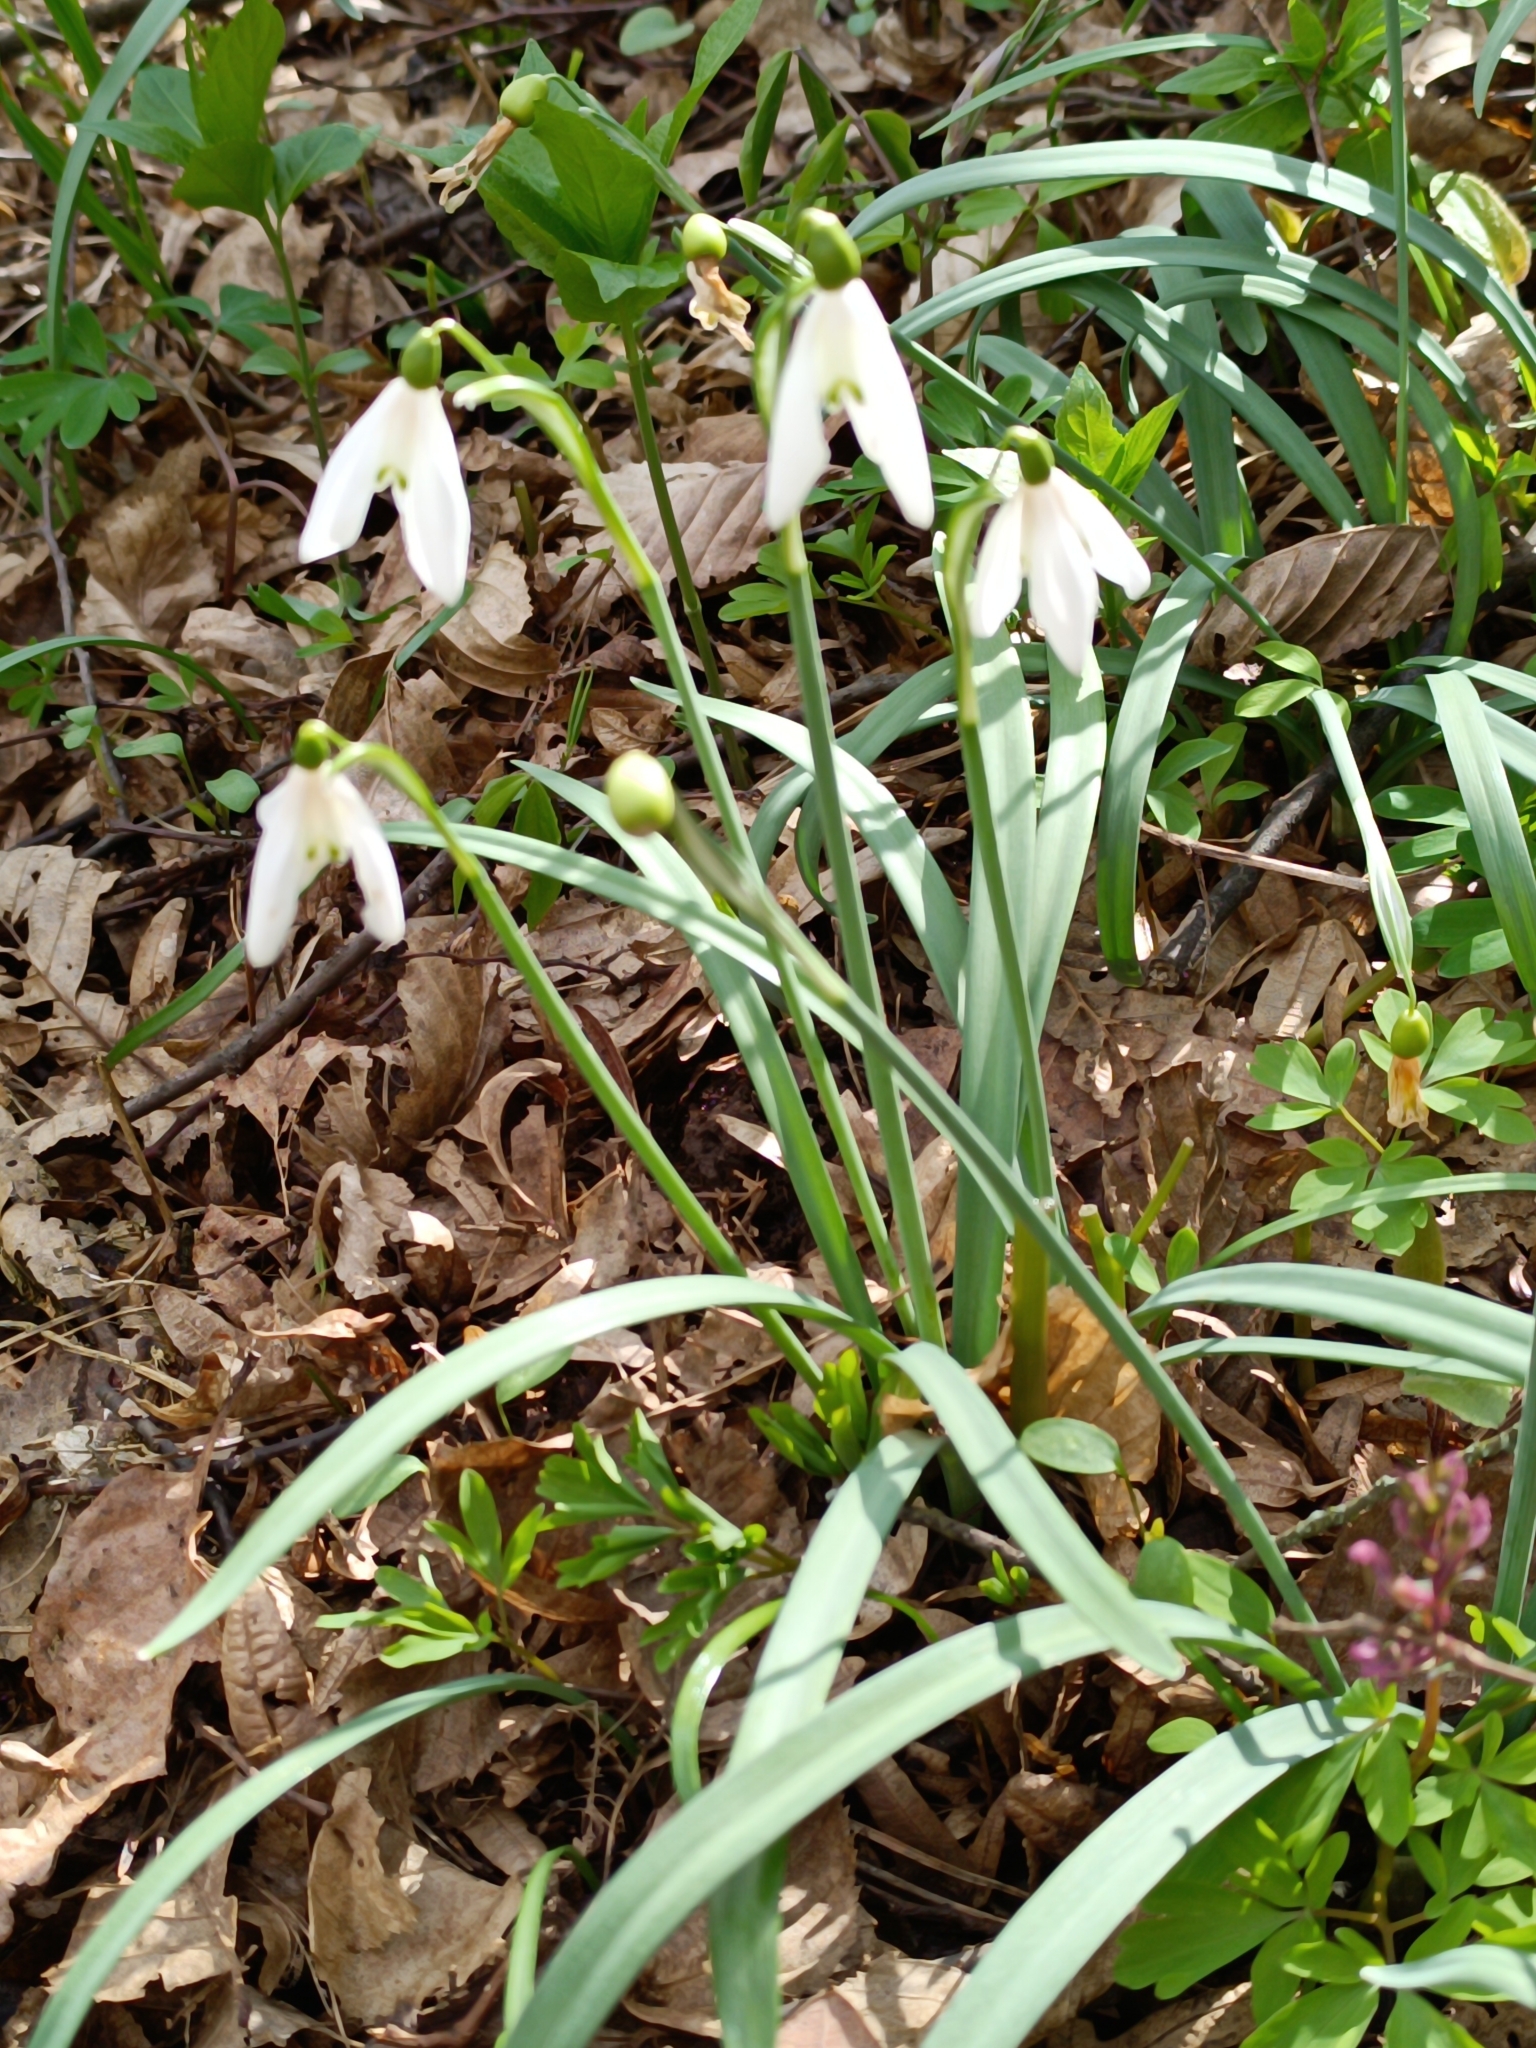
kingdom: Plantae
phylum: Tracheophyta
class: Liliopsida
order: Asparagales
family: Amaryllidaceae
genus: Galanthus
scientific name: Galanthus nivalis
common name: Snowdrop
